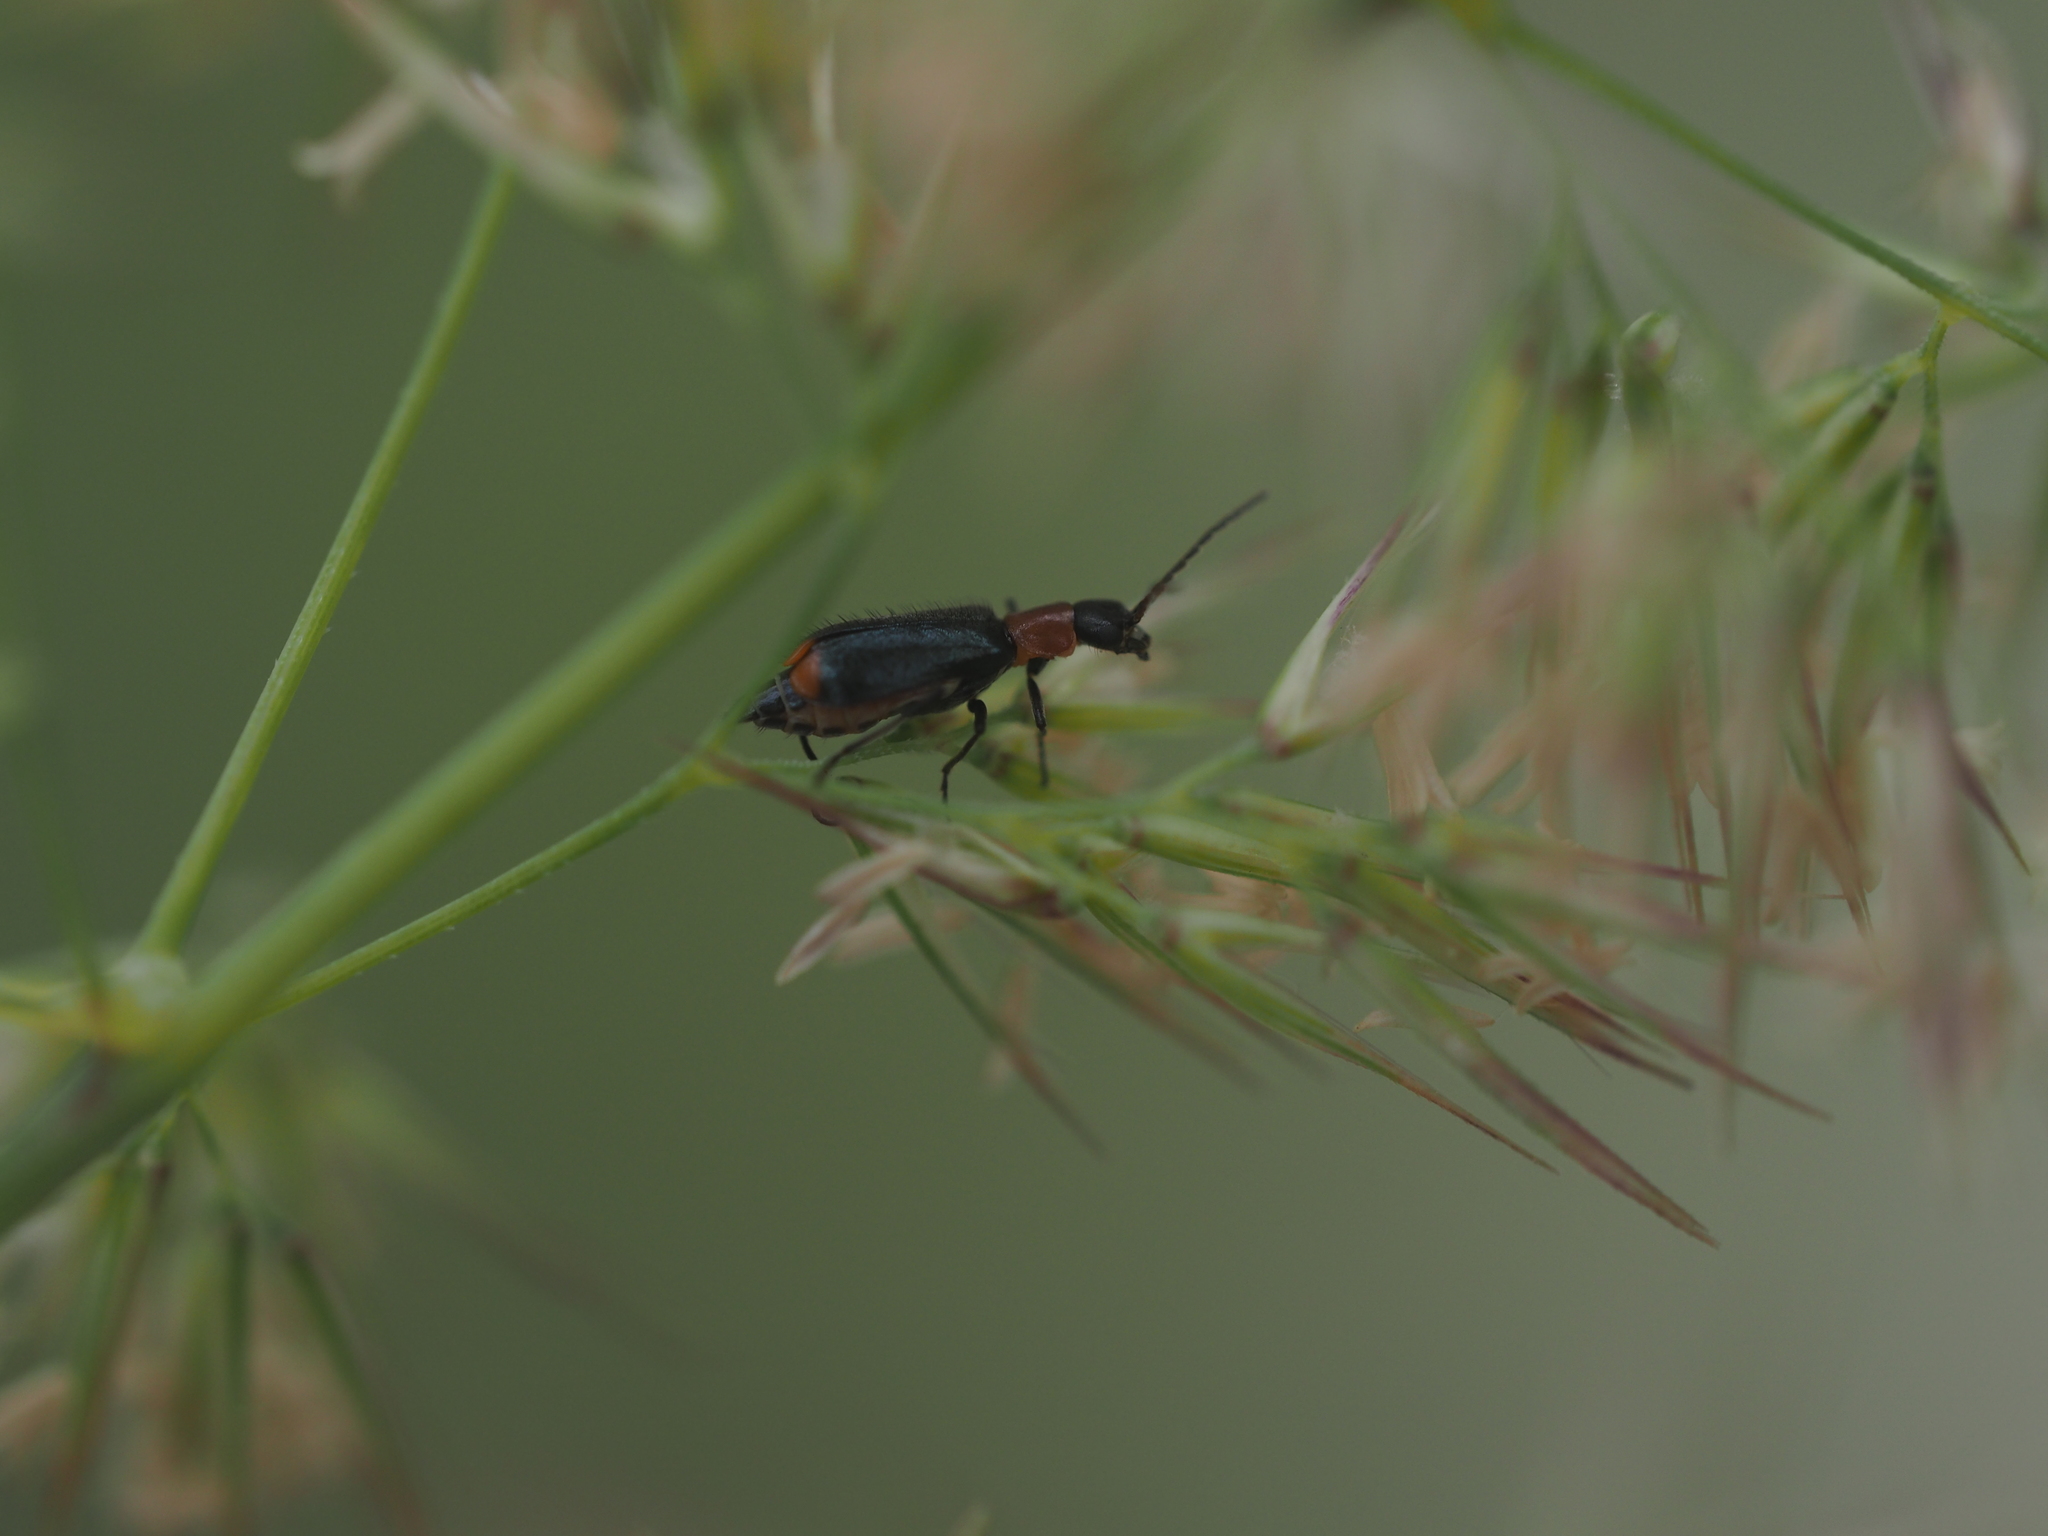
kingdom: Animalia
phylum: Arthropoda
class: Insecta
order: Coleoptera
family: Melyridae
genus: Axinotarsus
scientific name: Axinotarsus ruficollis
